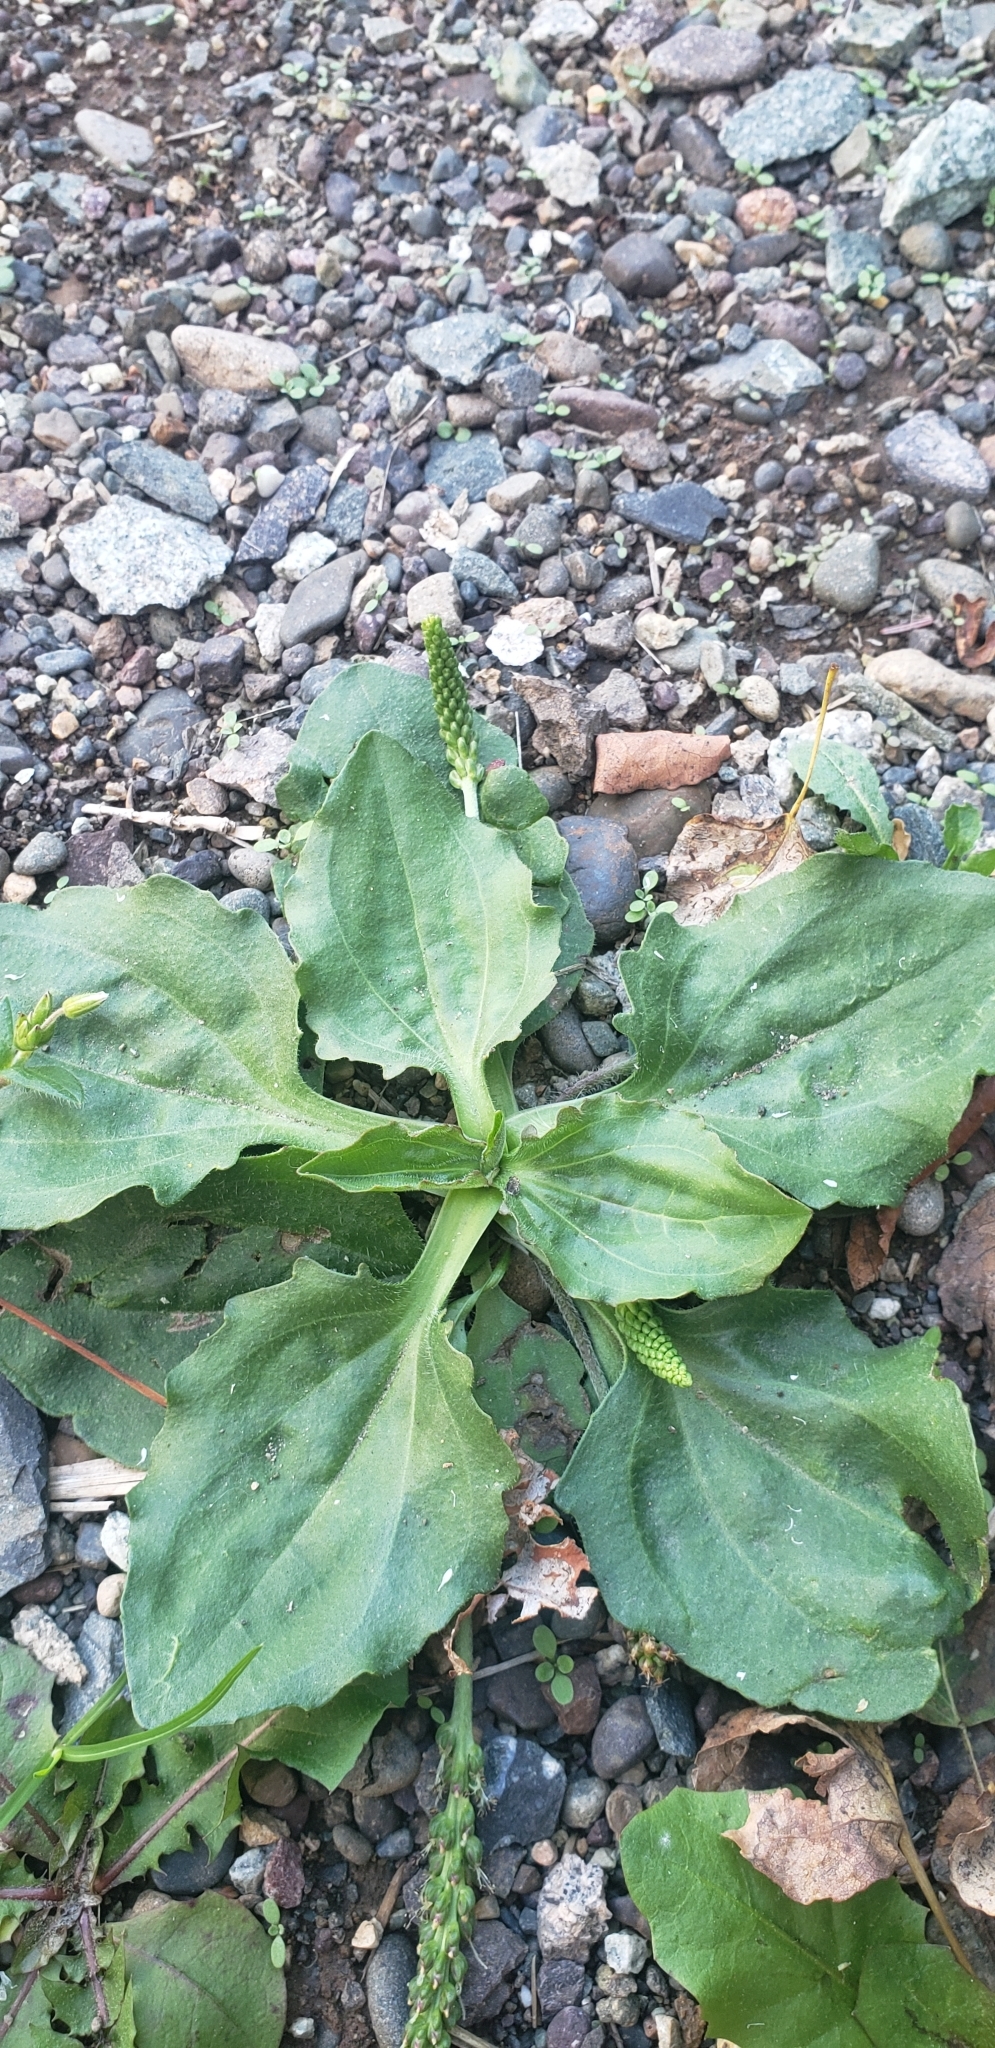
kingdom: Plantae
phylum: Tracheophyta
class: Magnoliopsida
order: Lamiales
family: Plantaginaceae
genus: Plantago
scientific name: Plantago major
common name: Common plantain
